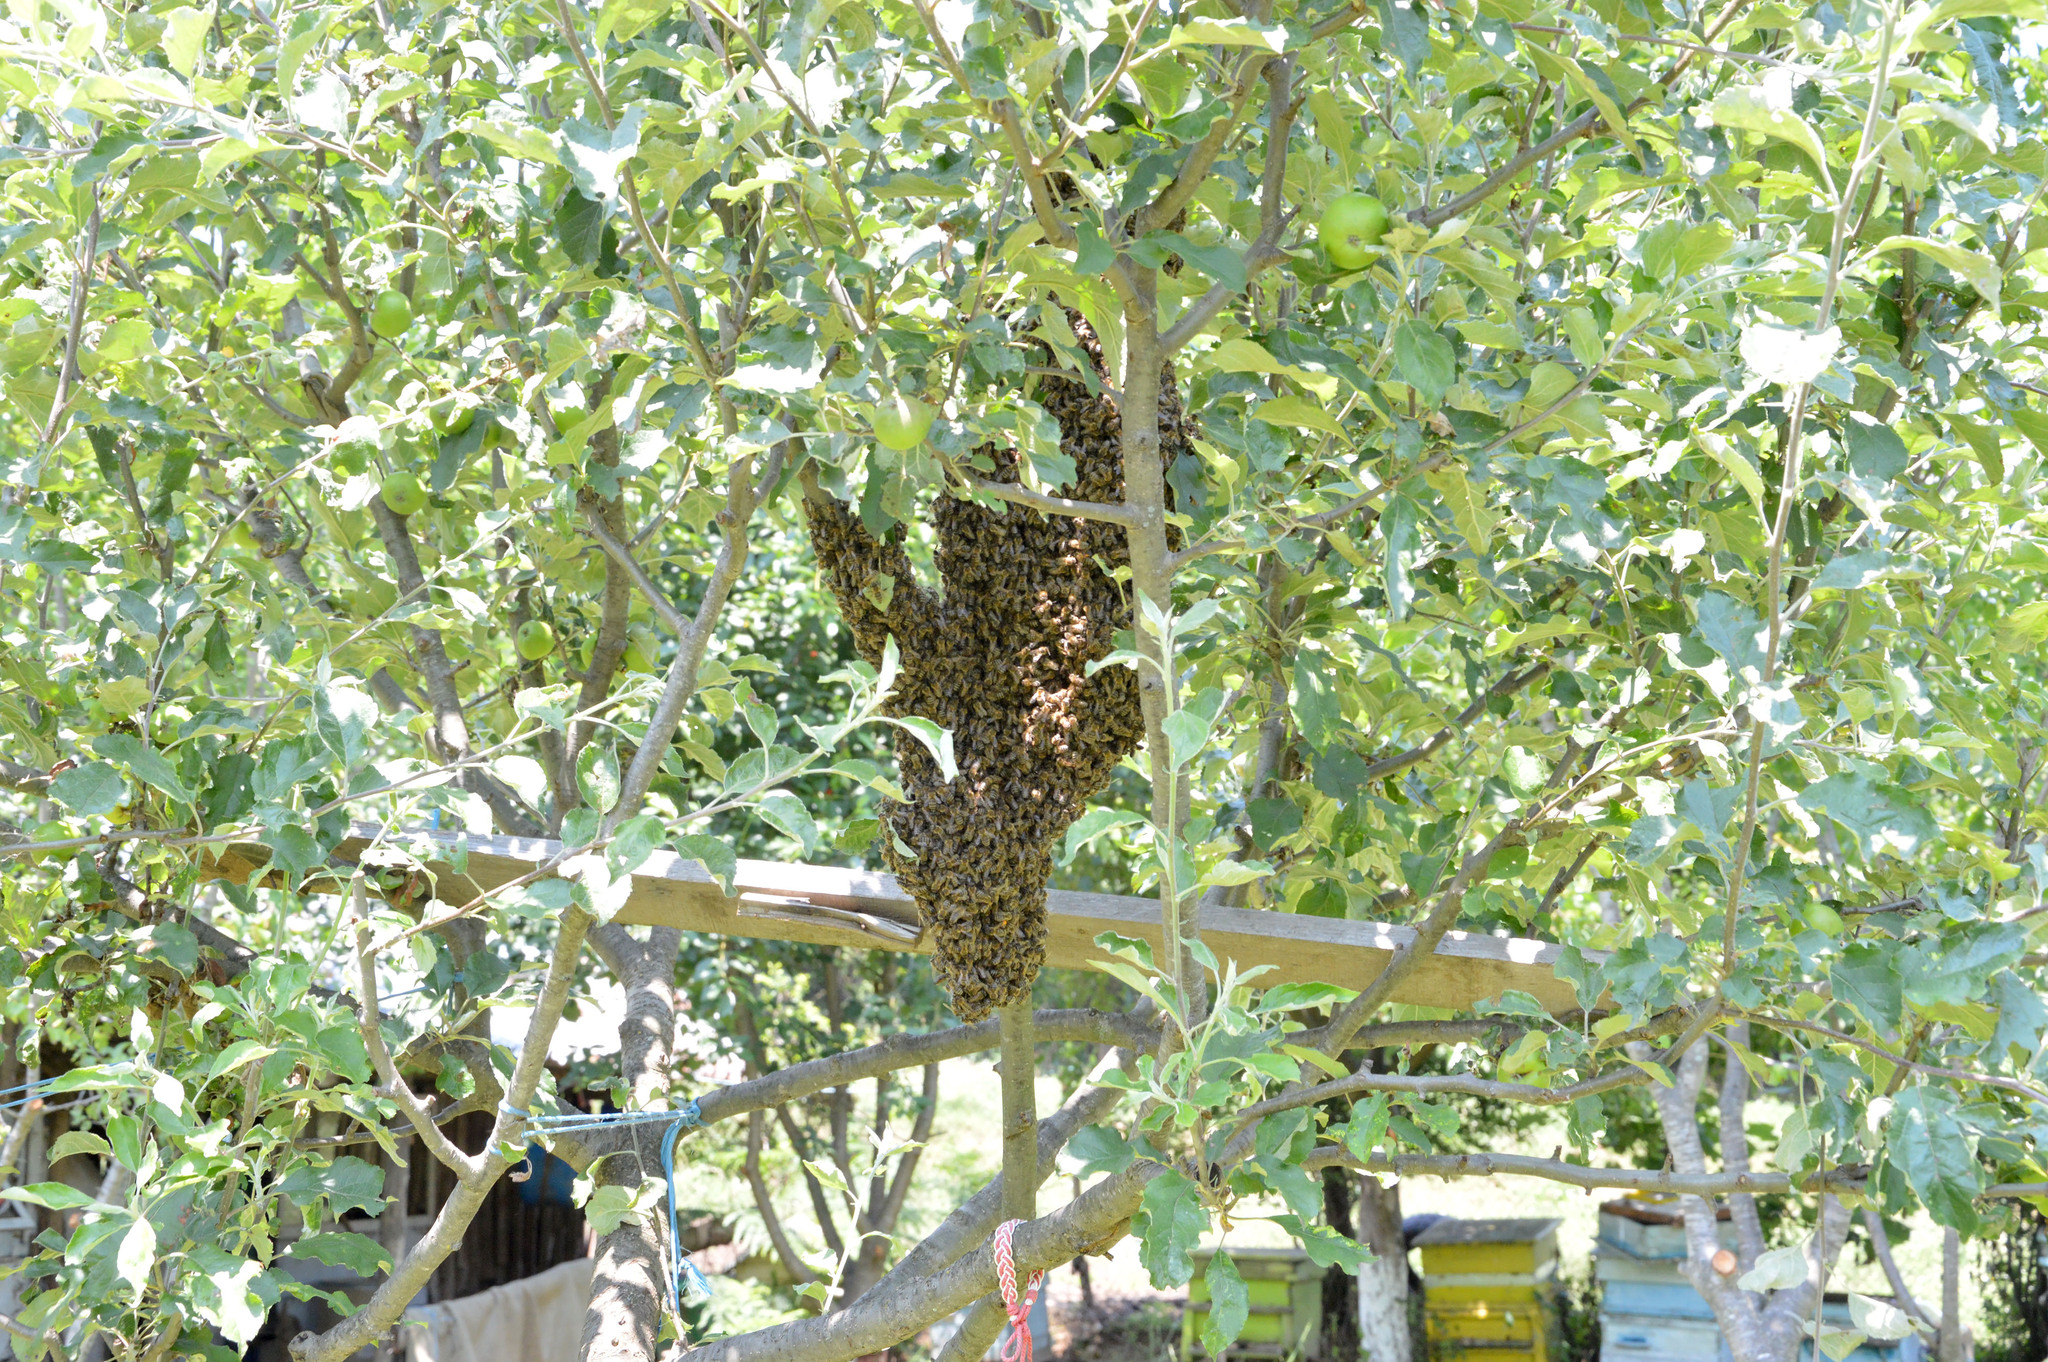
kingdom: Animalia
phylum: Chordata
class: Aves
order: Accipitriformes
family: Accipitridae
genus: Pernis
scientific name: Pernis apivorus
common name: European honey buzzard
